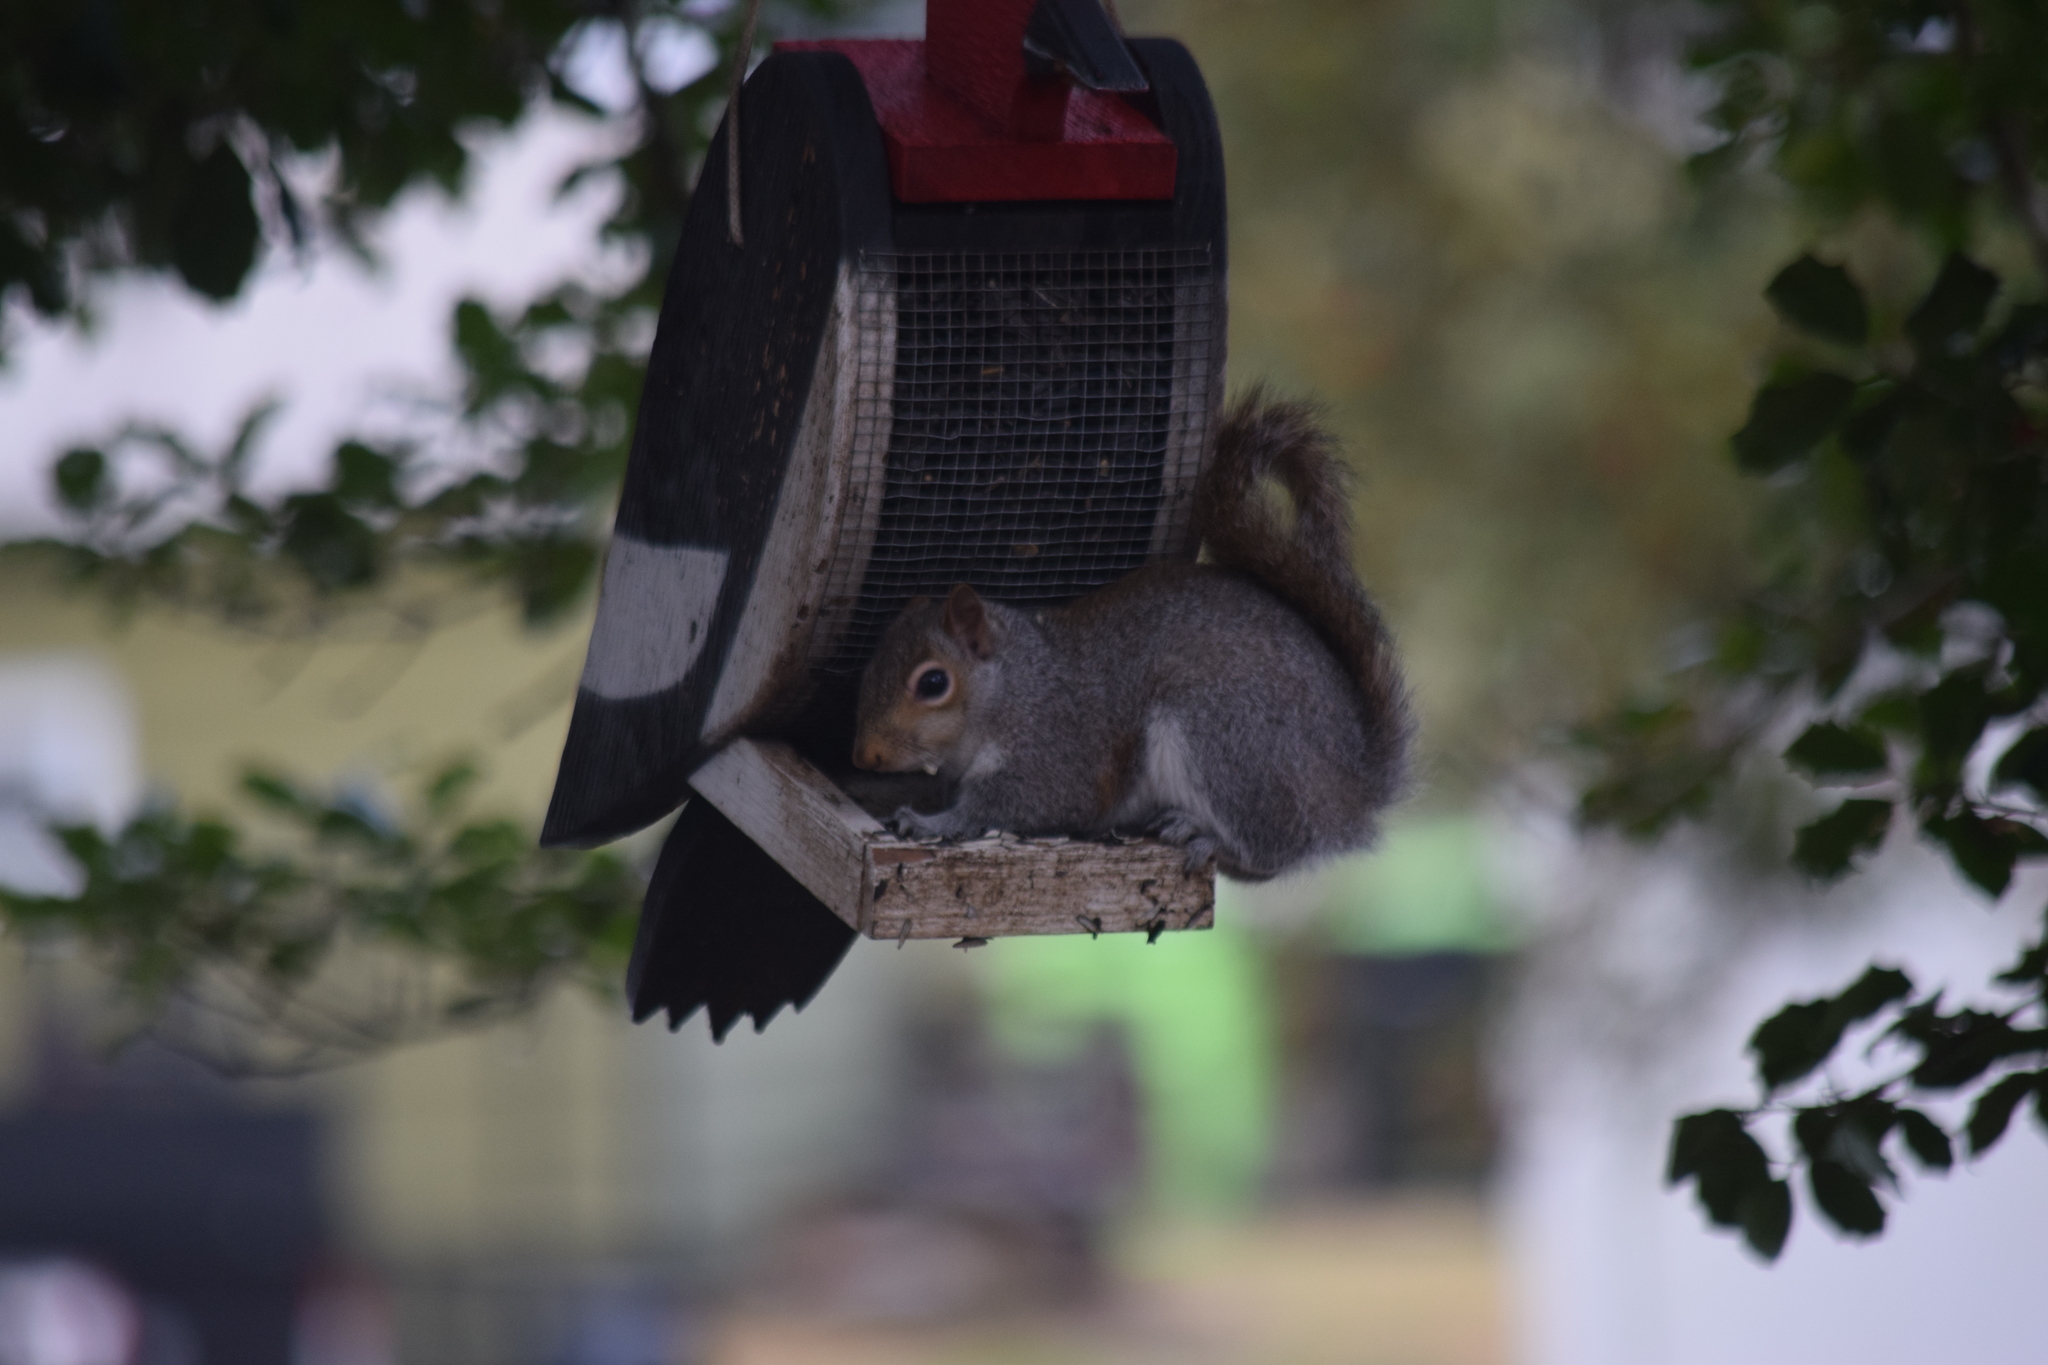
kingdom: Animalia
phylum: Chordata
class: Mammalia
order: Rodentia
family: Sciuridae
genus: Sciurus
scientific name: Sciurus carolinensis
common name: Eastern gray squirrel
